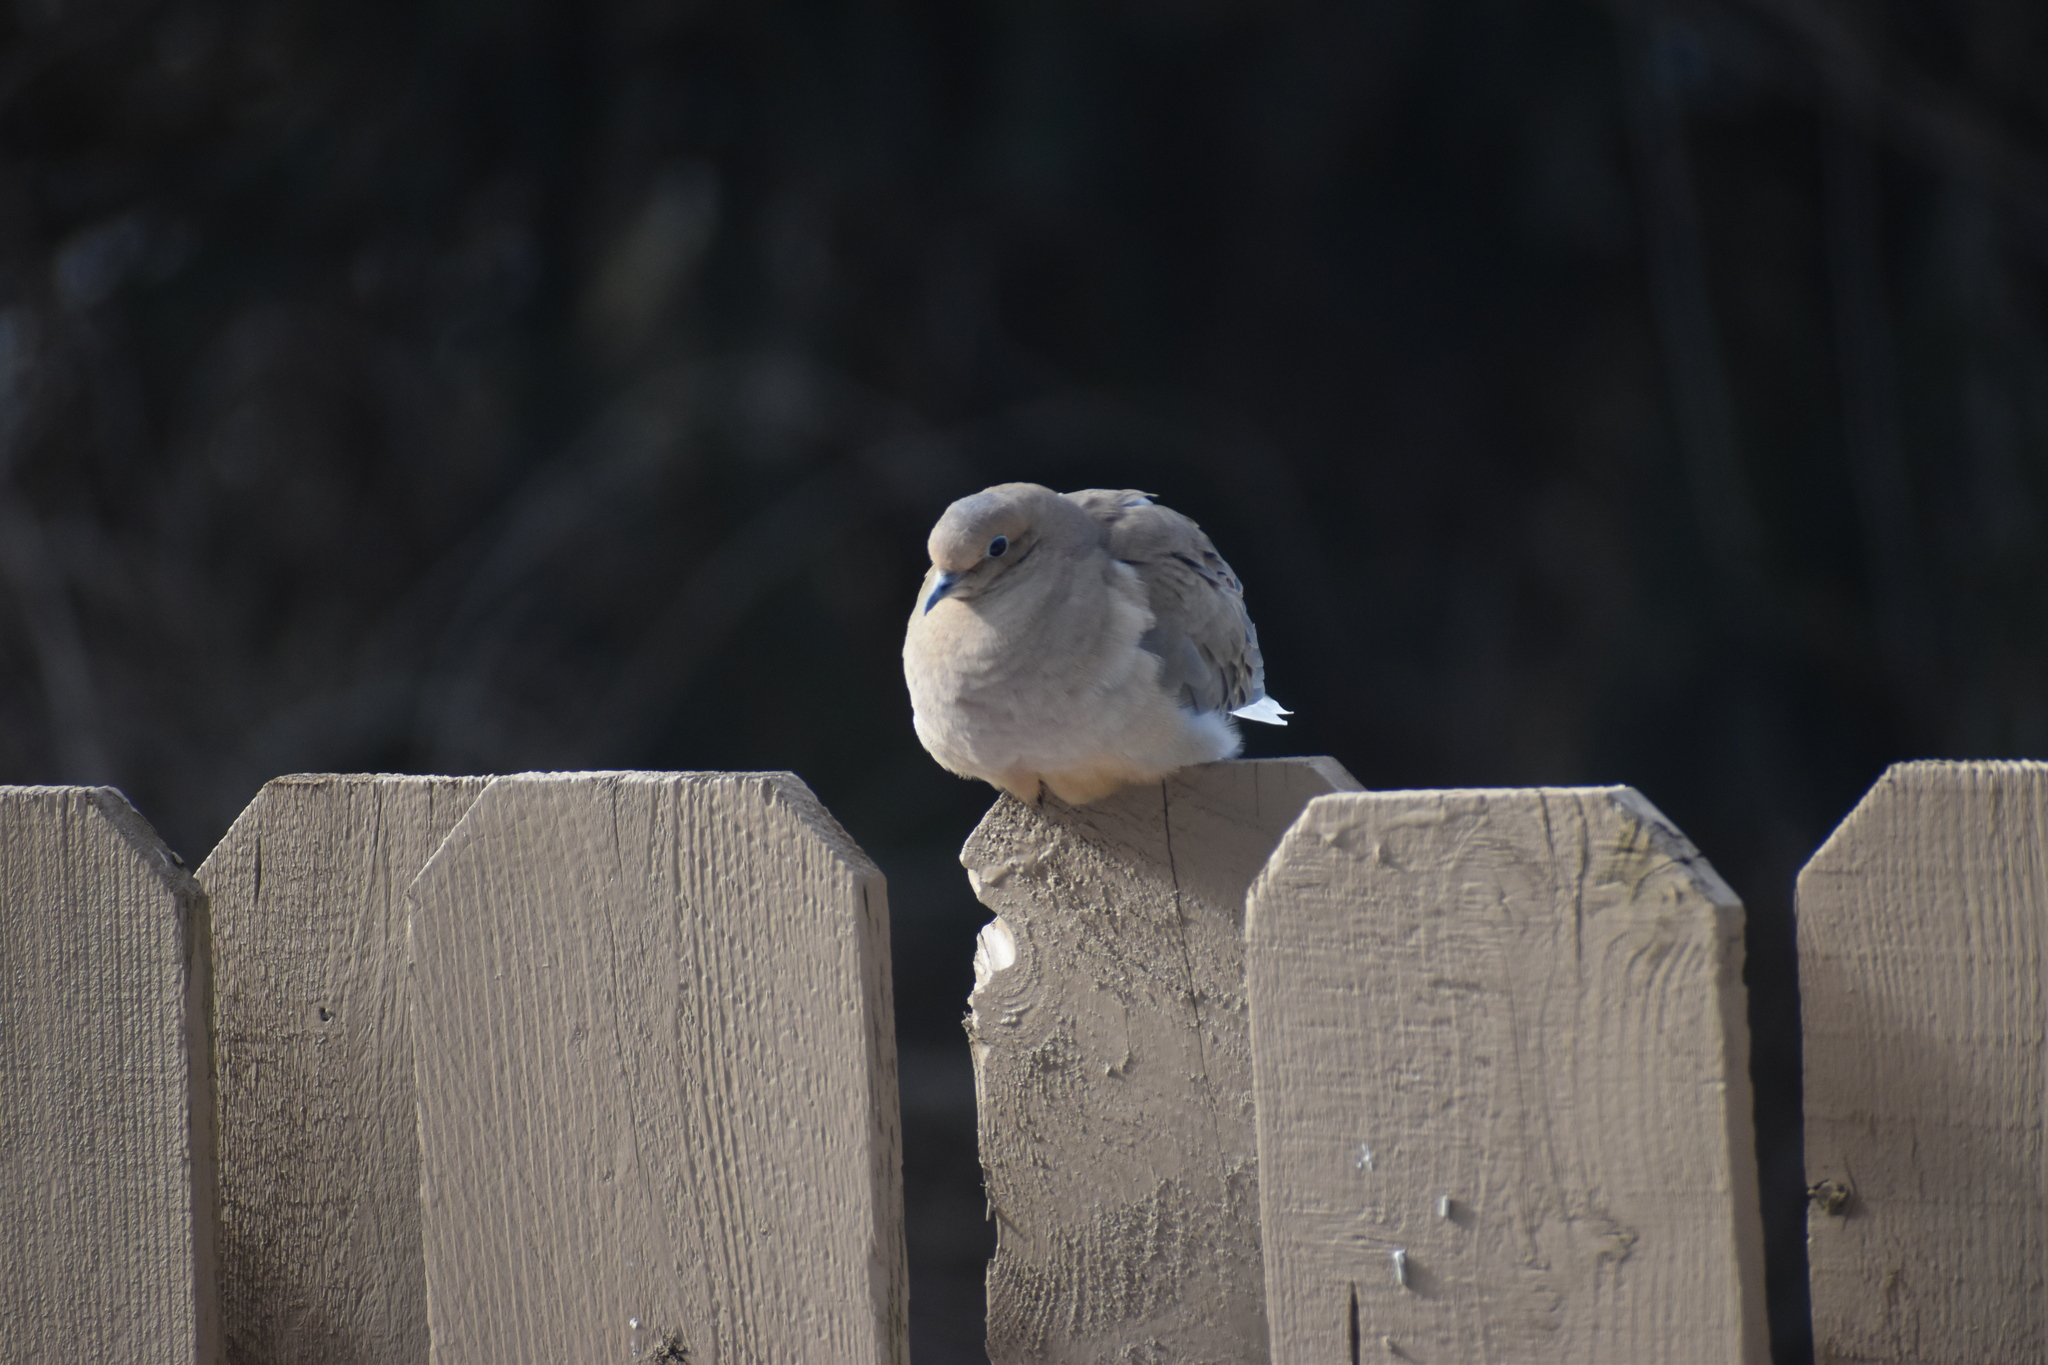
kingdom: Animalia
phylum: Chordata
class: Aves
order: Columbiformes
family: Columbidae
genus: Zenaida
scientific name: Zenaida macroura
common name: Mourning dove
